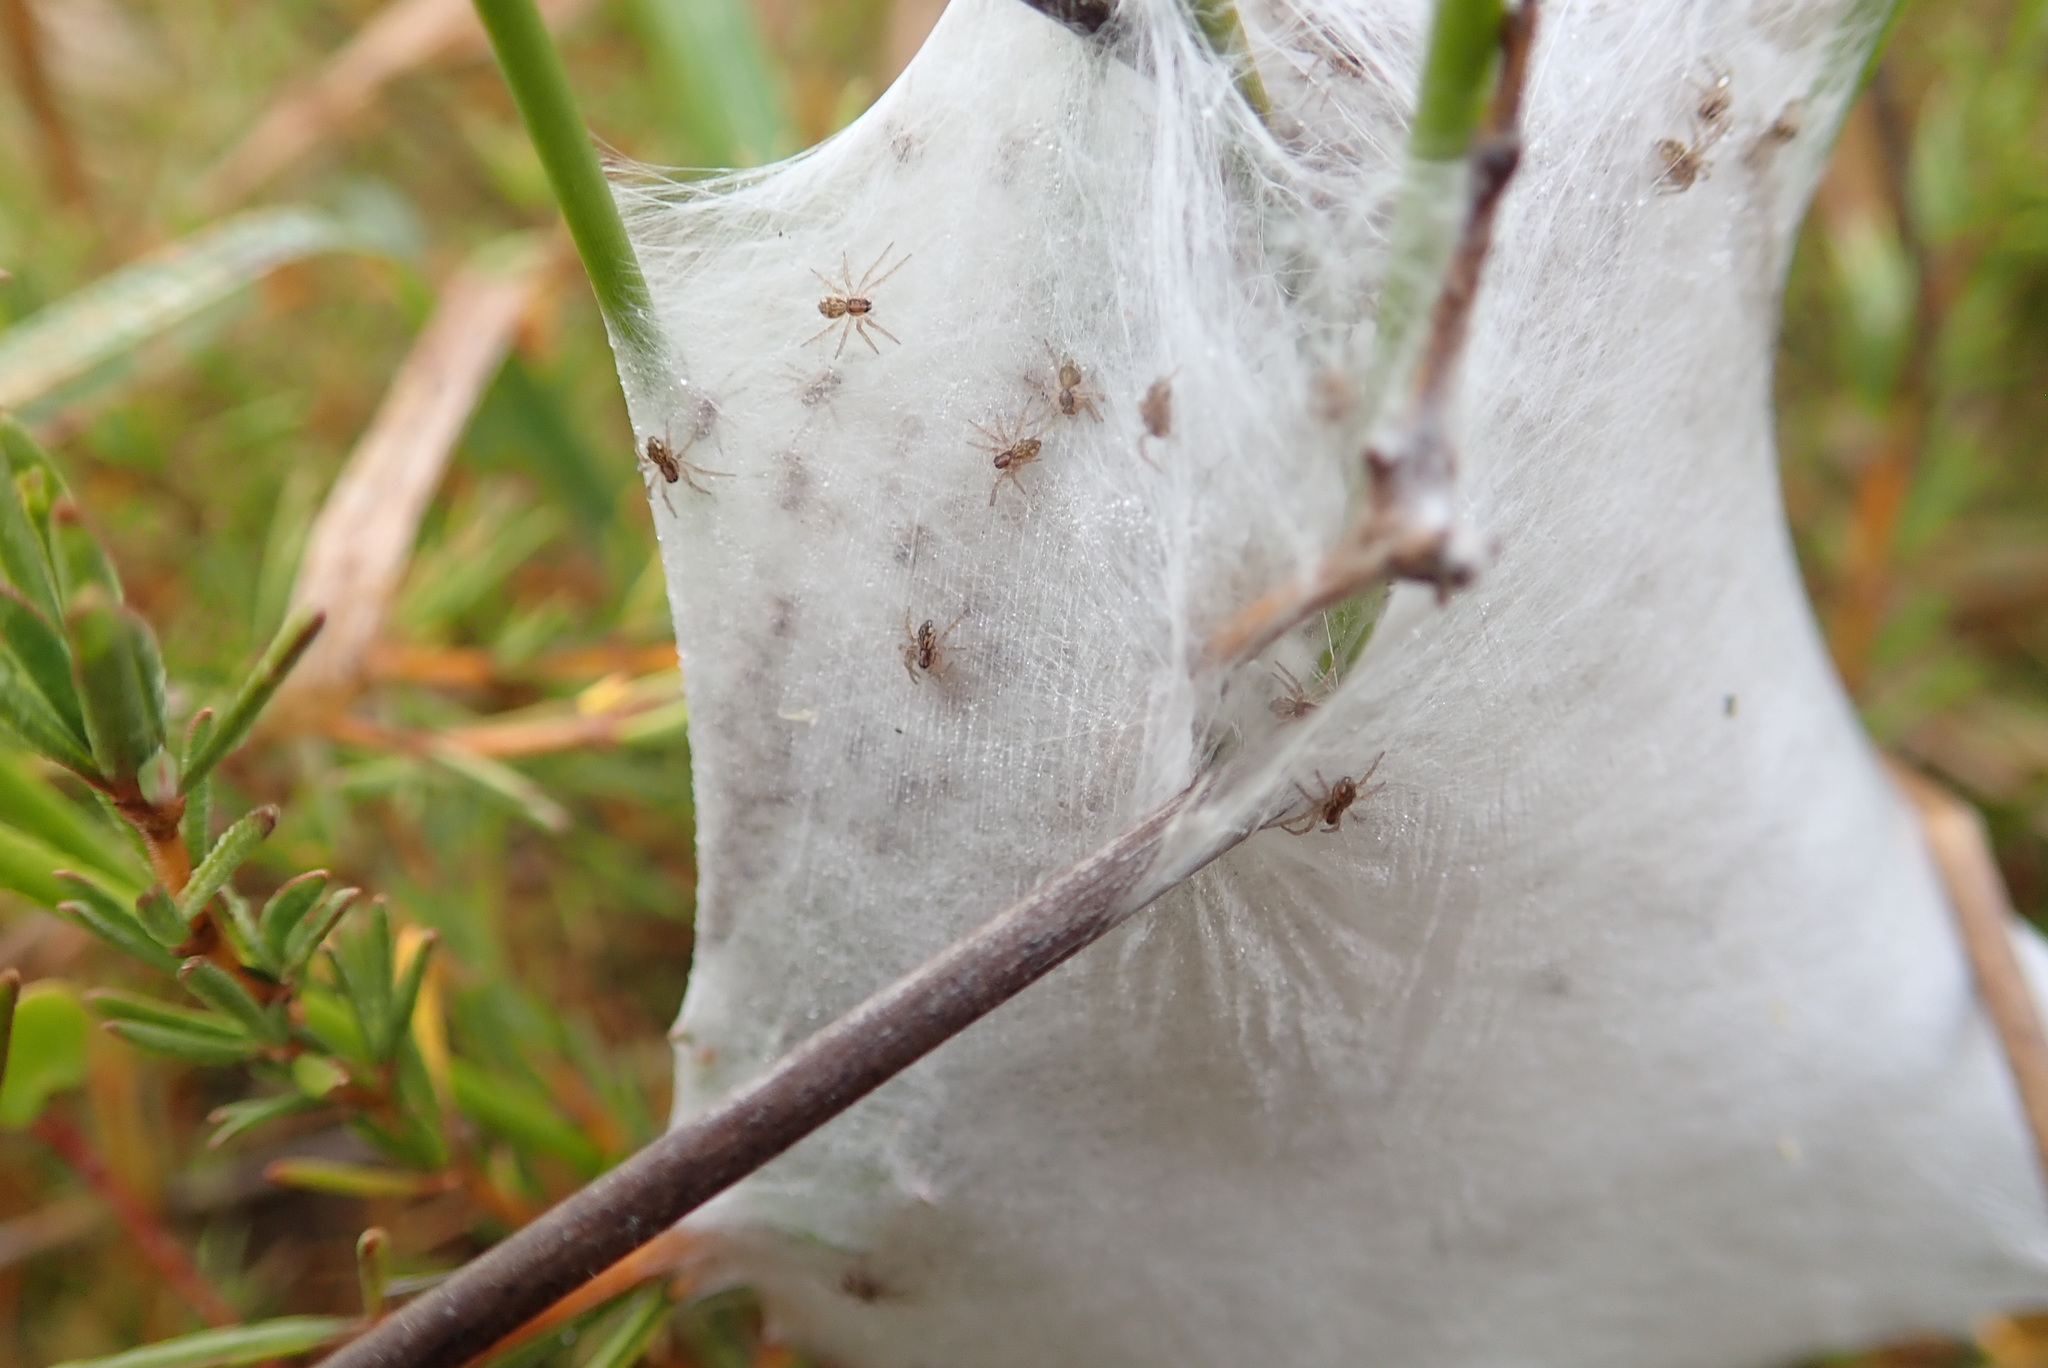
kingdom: Animalia
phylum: Arthropoda
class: Arachnida
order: Araneae
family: Pisauridae
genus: Dolomedes
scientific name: Dolomedes minor
